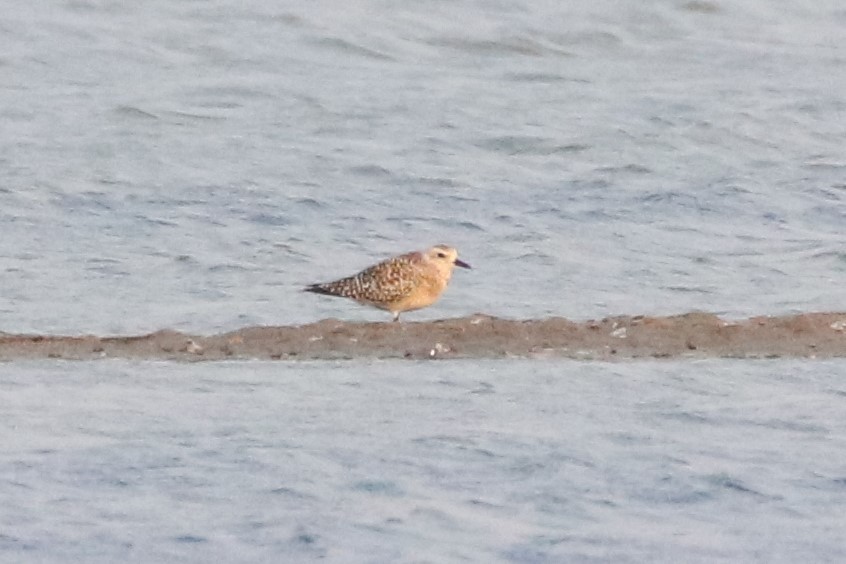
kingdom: Animalia
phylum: Chordata
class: Aves
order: Charadriiformes
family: Charadriidae
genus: Pluvialis
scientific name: Pluvialis squatarola
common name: Grey plover
